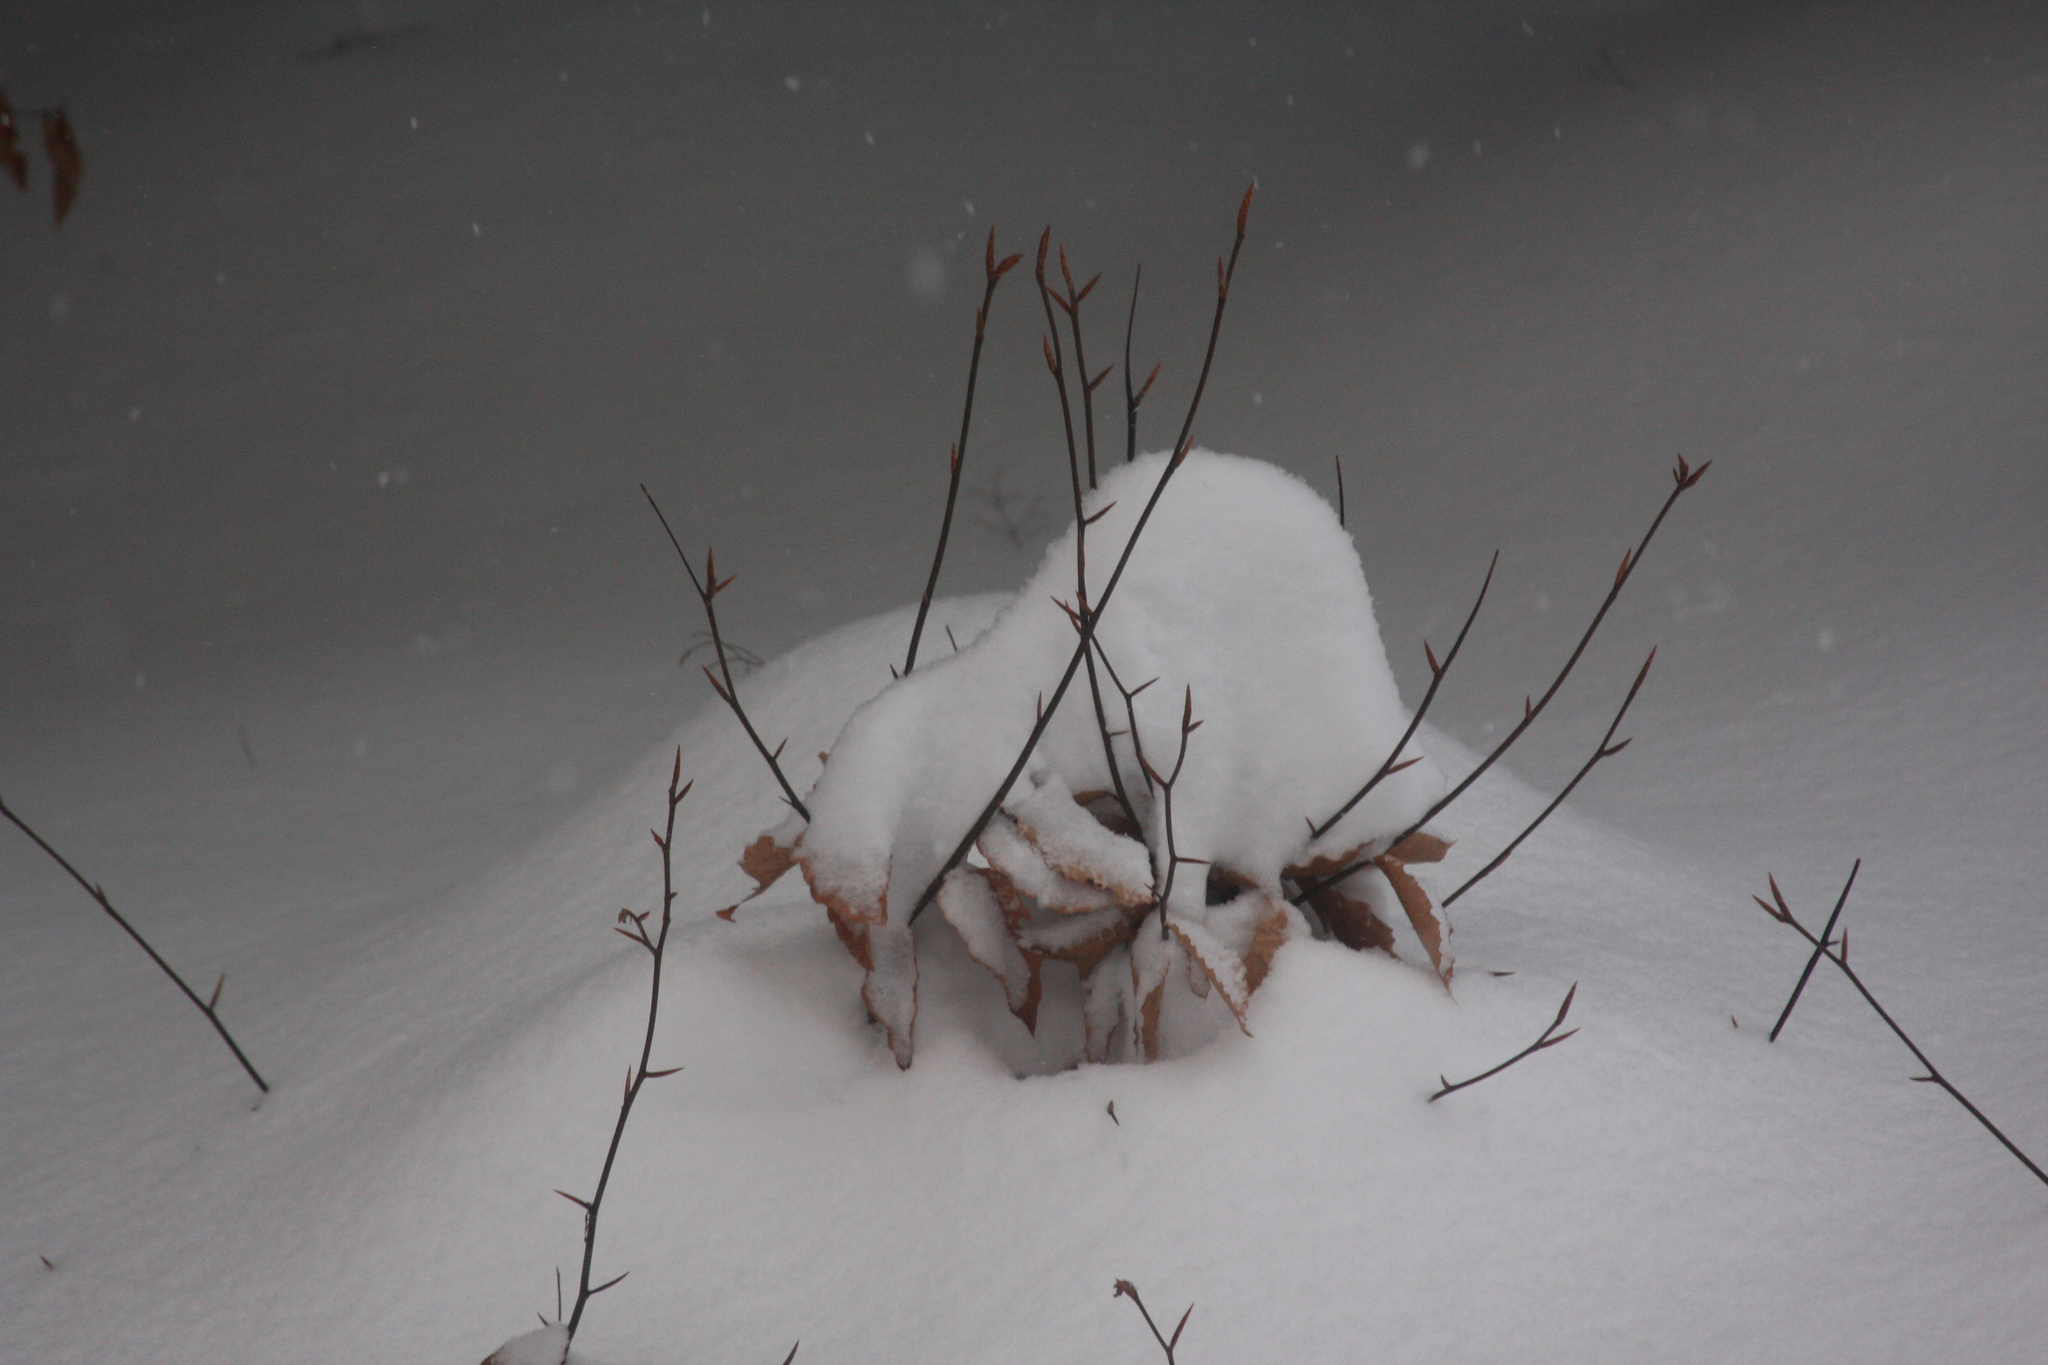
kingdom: Plantae
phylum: Tracheophyta
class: Magnoliopsida
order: Fagales
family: Fagaceae
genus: Fagus
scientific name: Fagus grandifolia
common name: American beech
